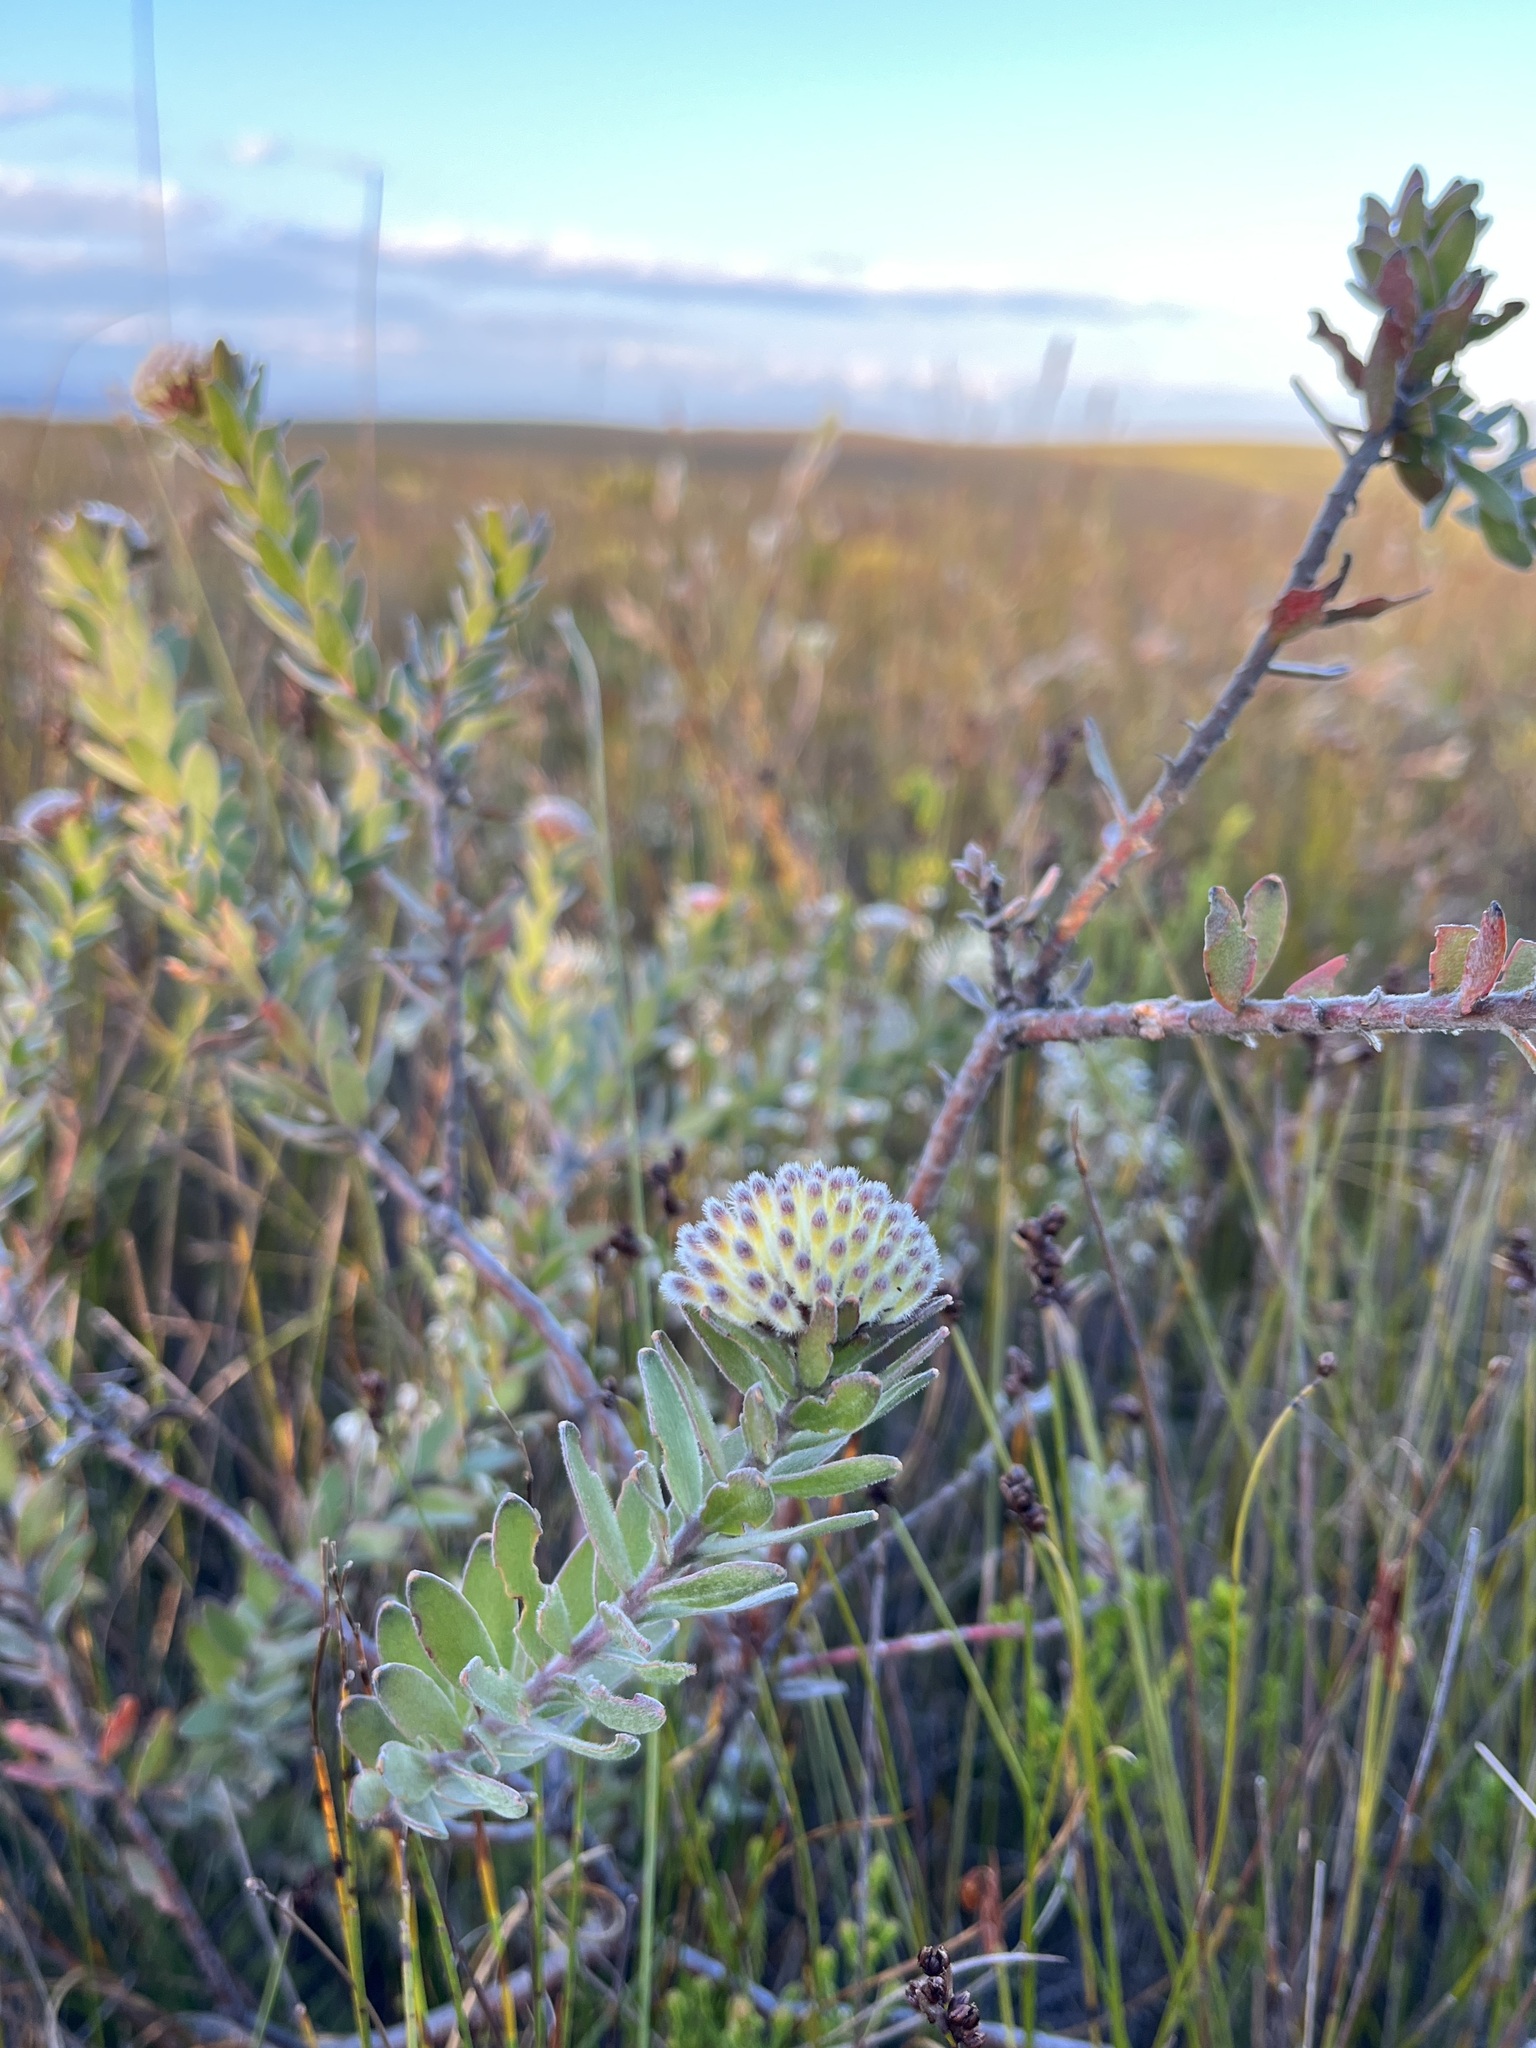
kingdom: Plantae
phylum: Tracheophyta
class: Magnoliopsida
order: Proteales
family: Proteaceae
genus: Leucospermum
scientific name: Leucospermum pedunculatum
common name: White-trailing pincushion
